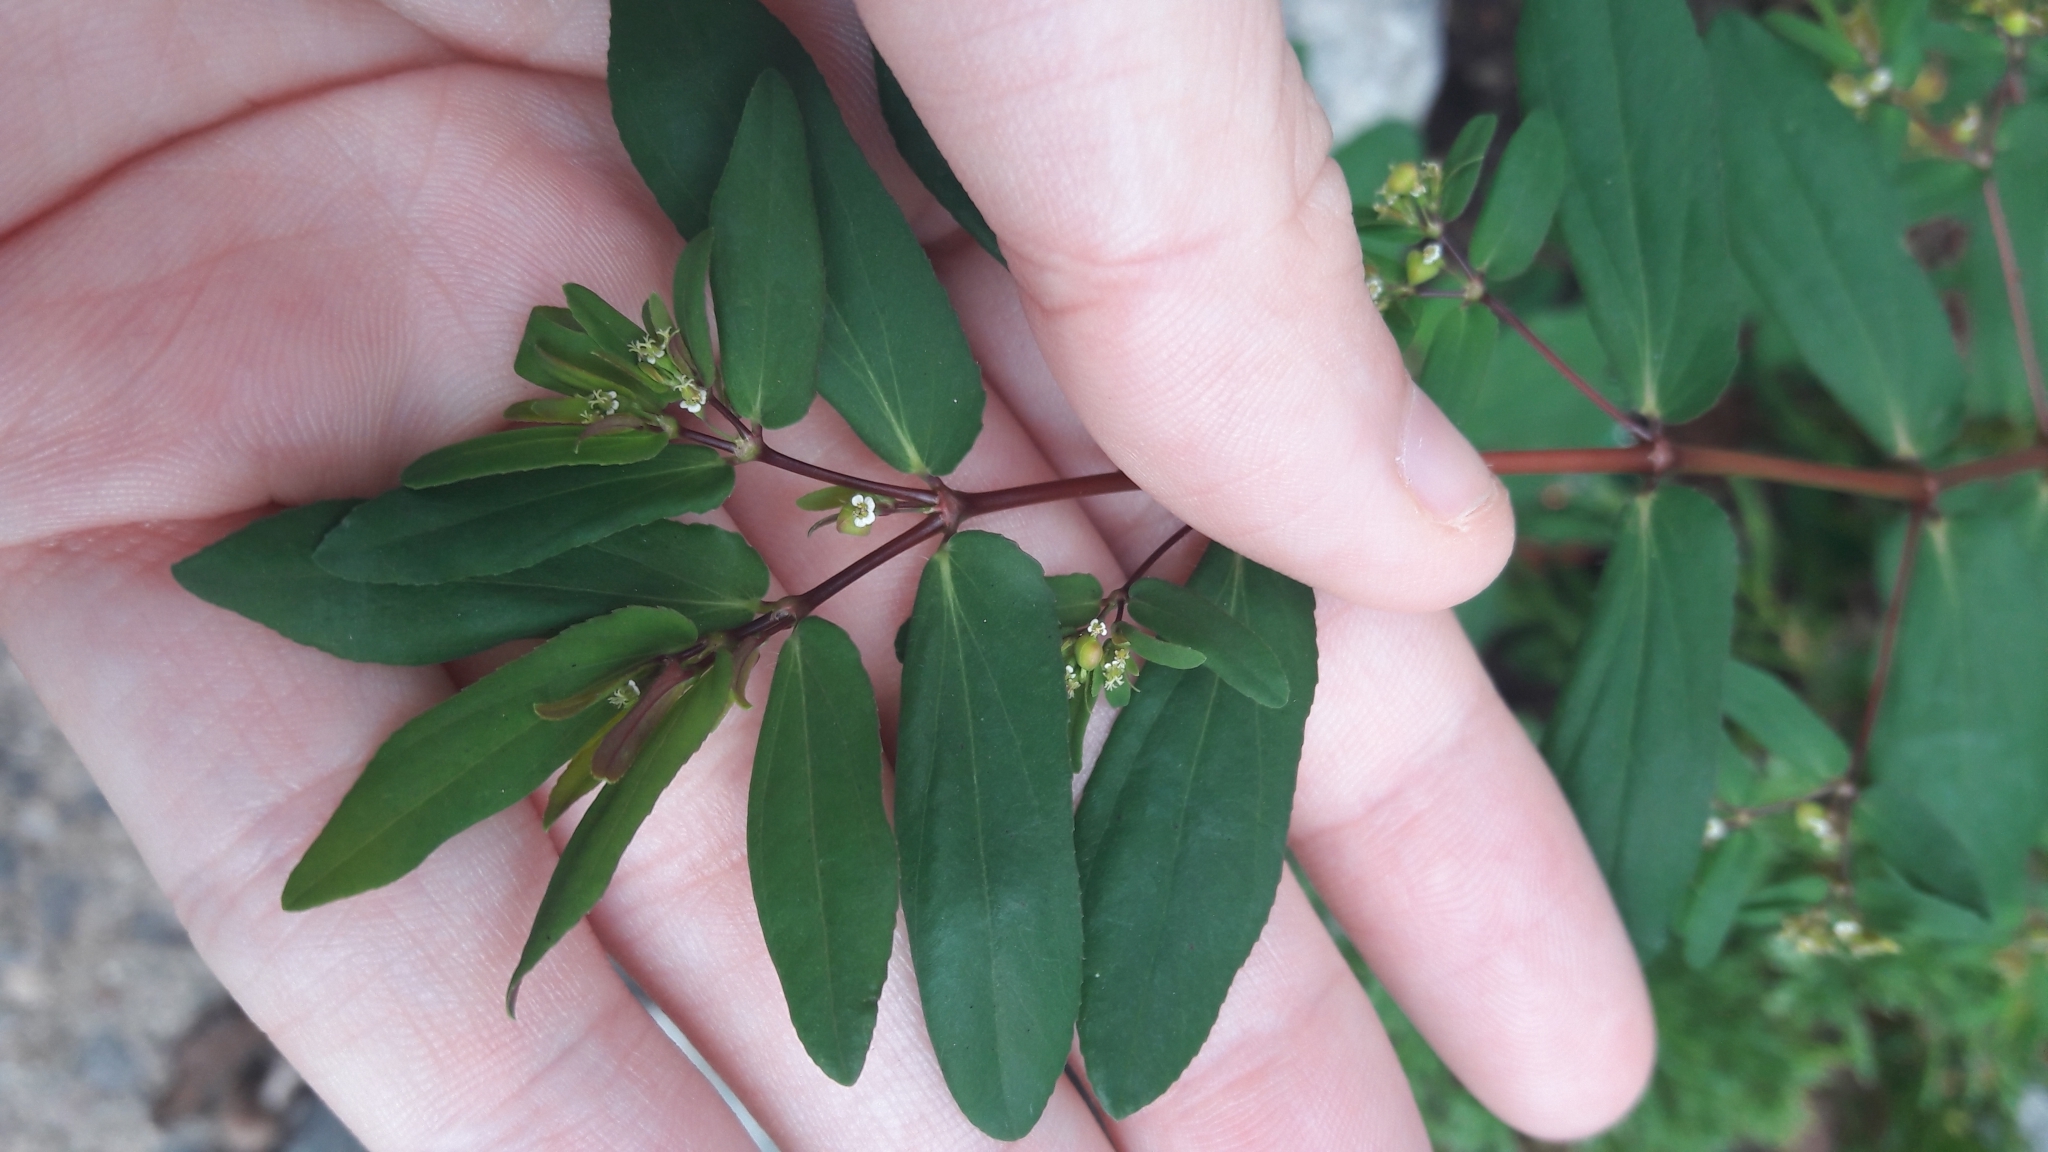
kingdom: Plantae
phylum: Tracheophyta
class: Magnoliopsida
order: Malpighiales
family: Euphorbiaceae
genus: Euphorbia
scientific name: Euphorbia hyssopifolia
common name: Hyssopleaf sandmat
